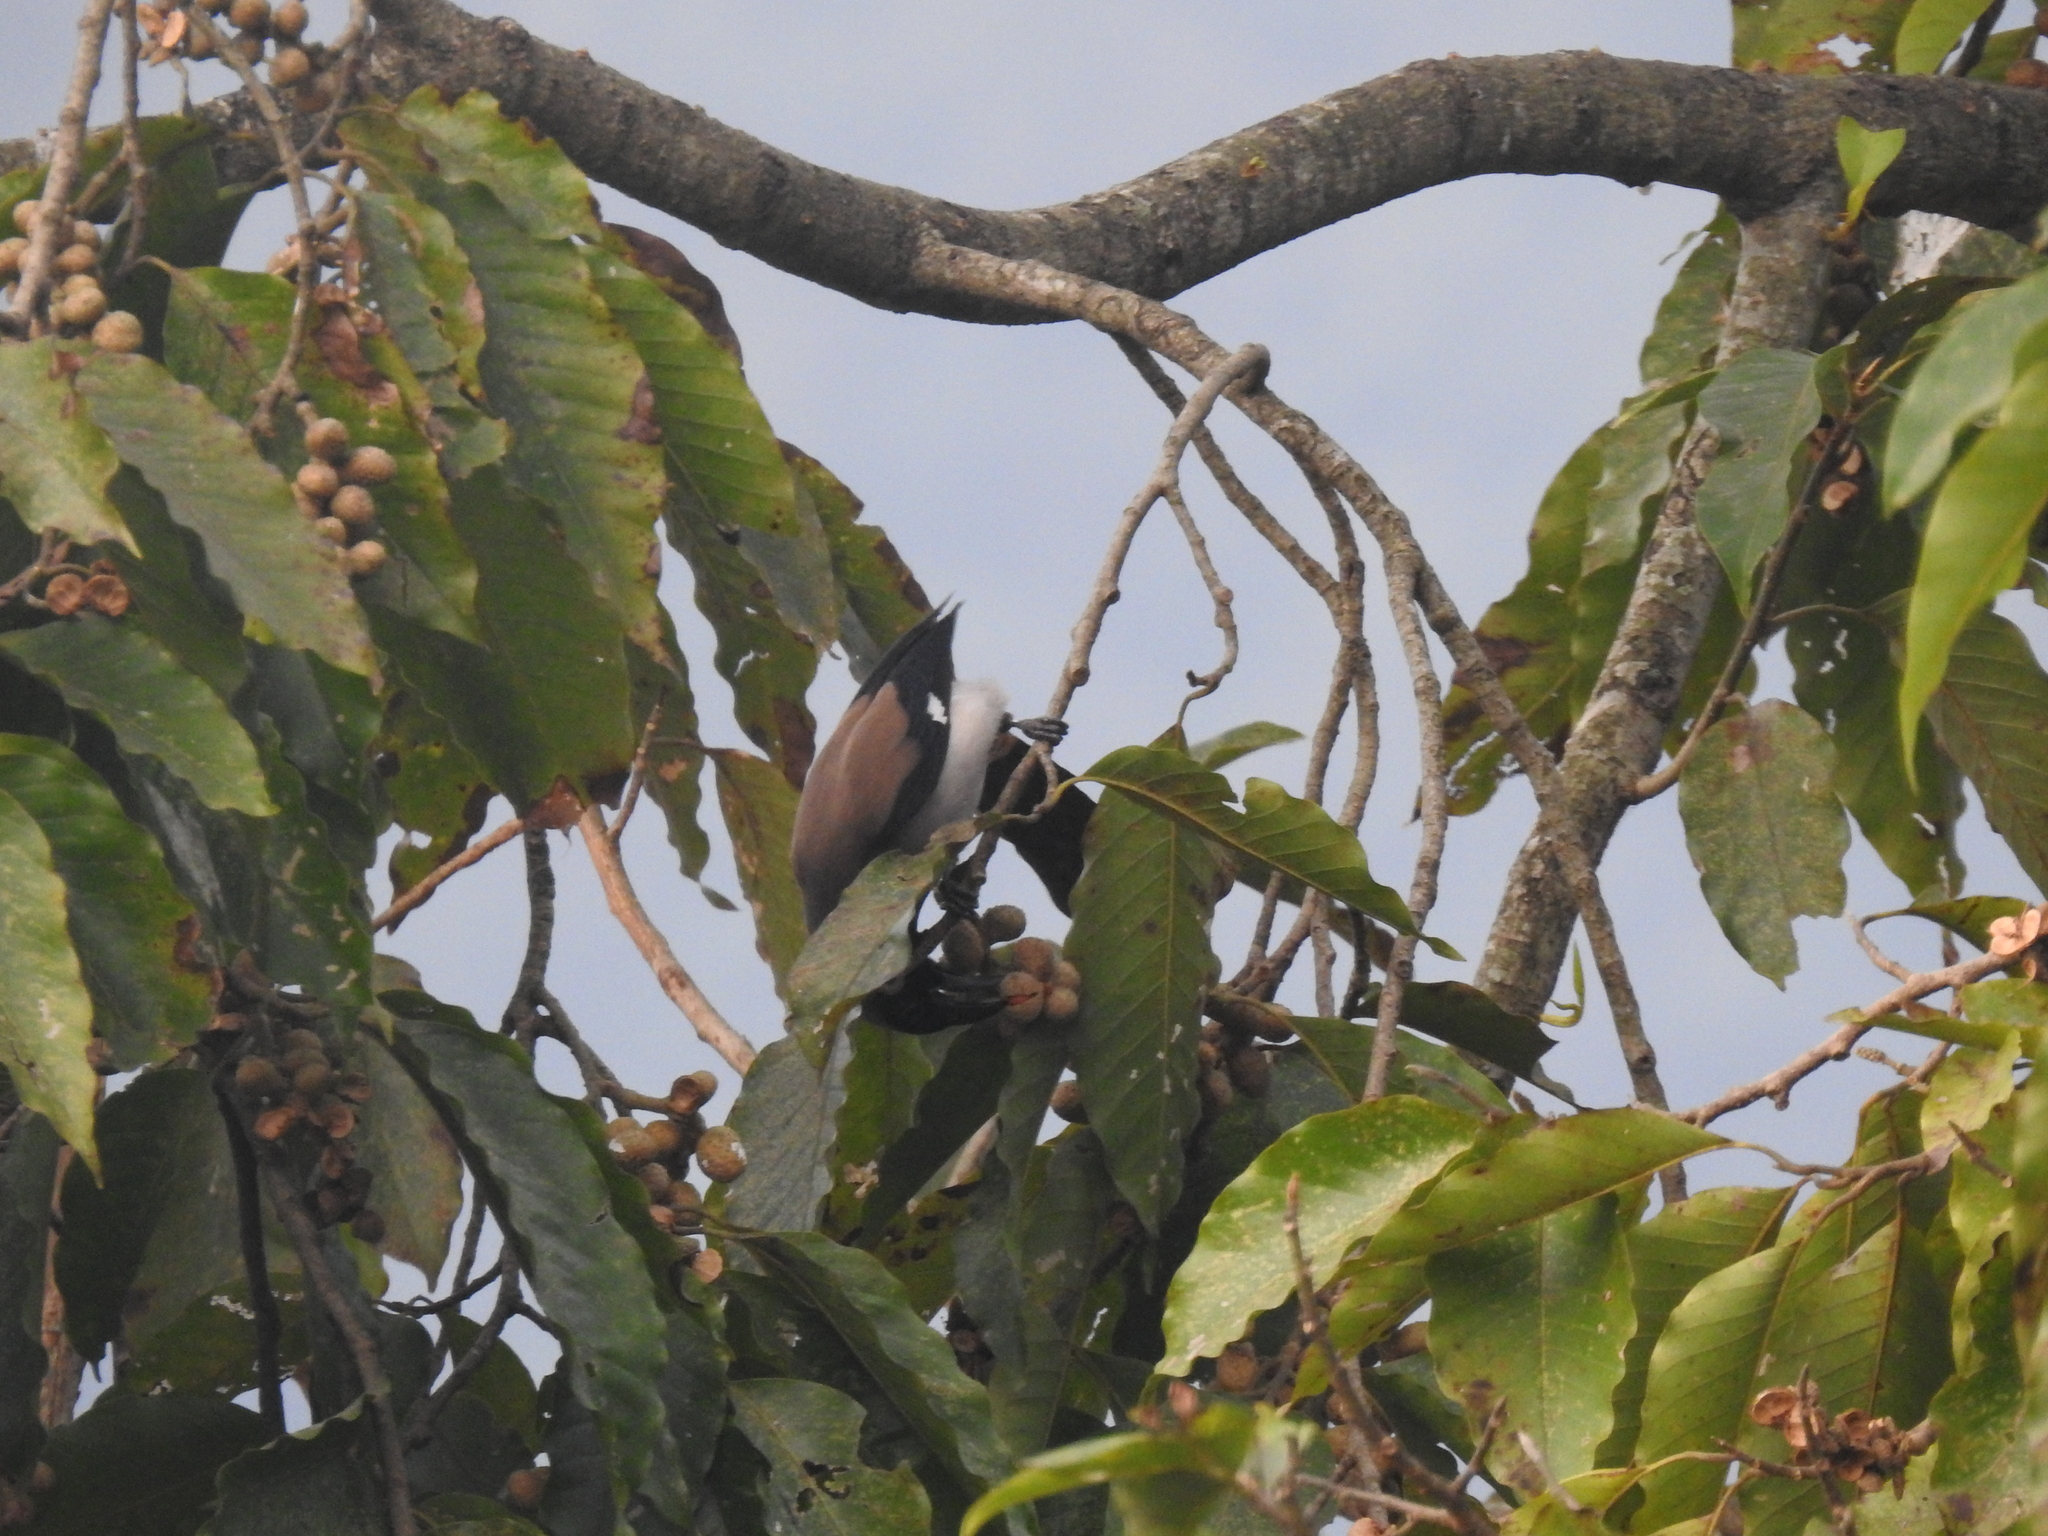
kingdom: Animalia
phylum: Chordata
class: Aves
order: Passeriformes
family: Corvidae
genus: Dendrocitta
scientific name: Dendrocitta formosae
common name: Grey treepie
